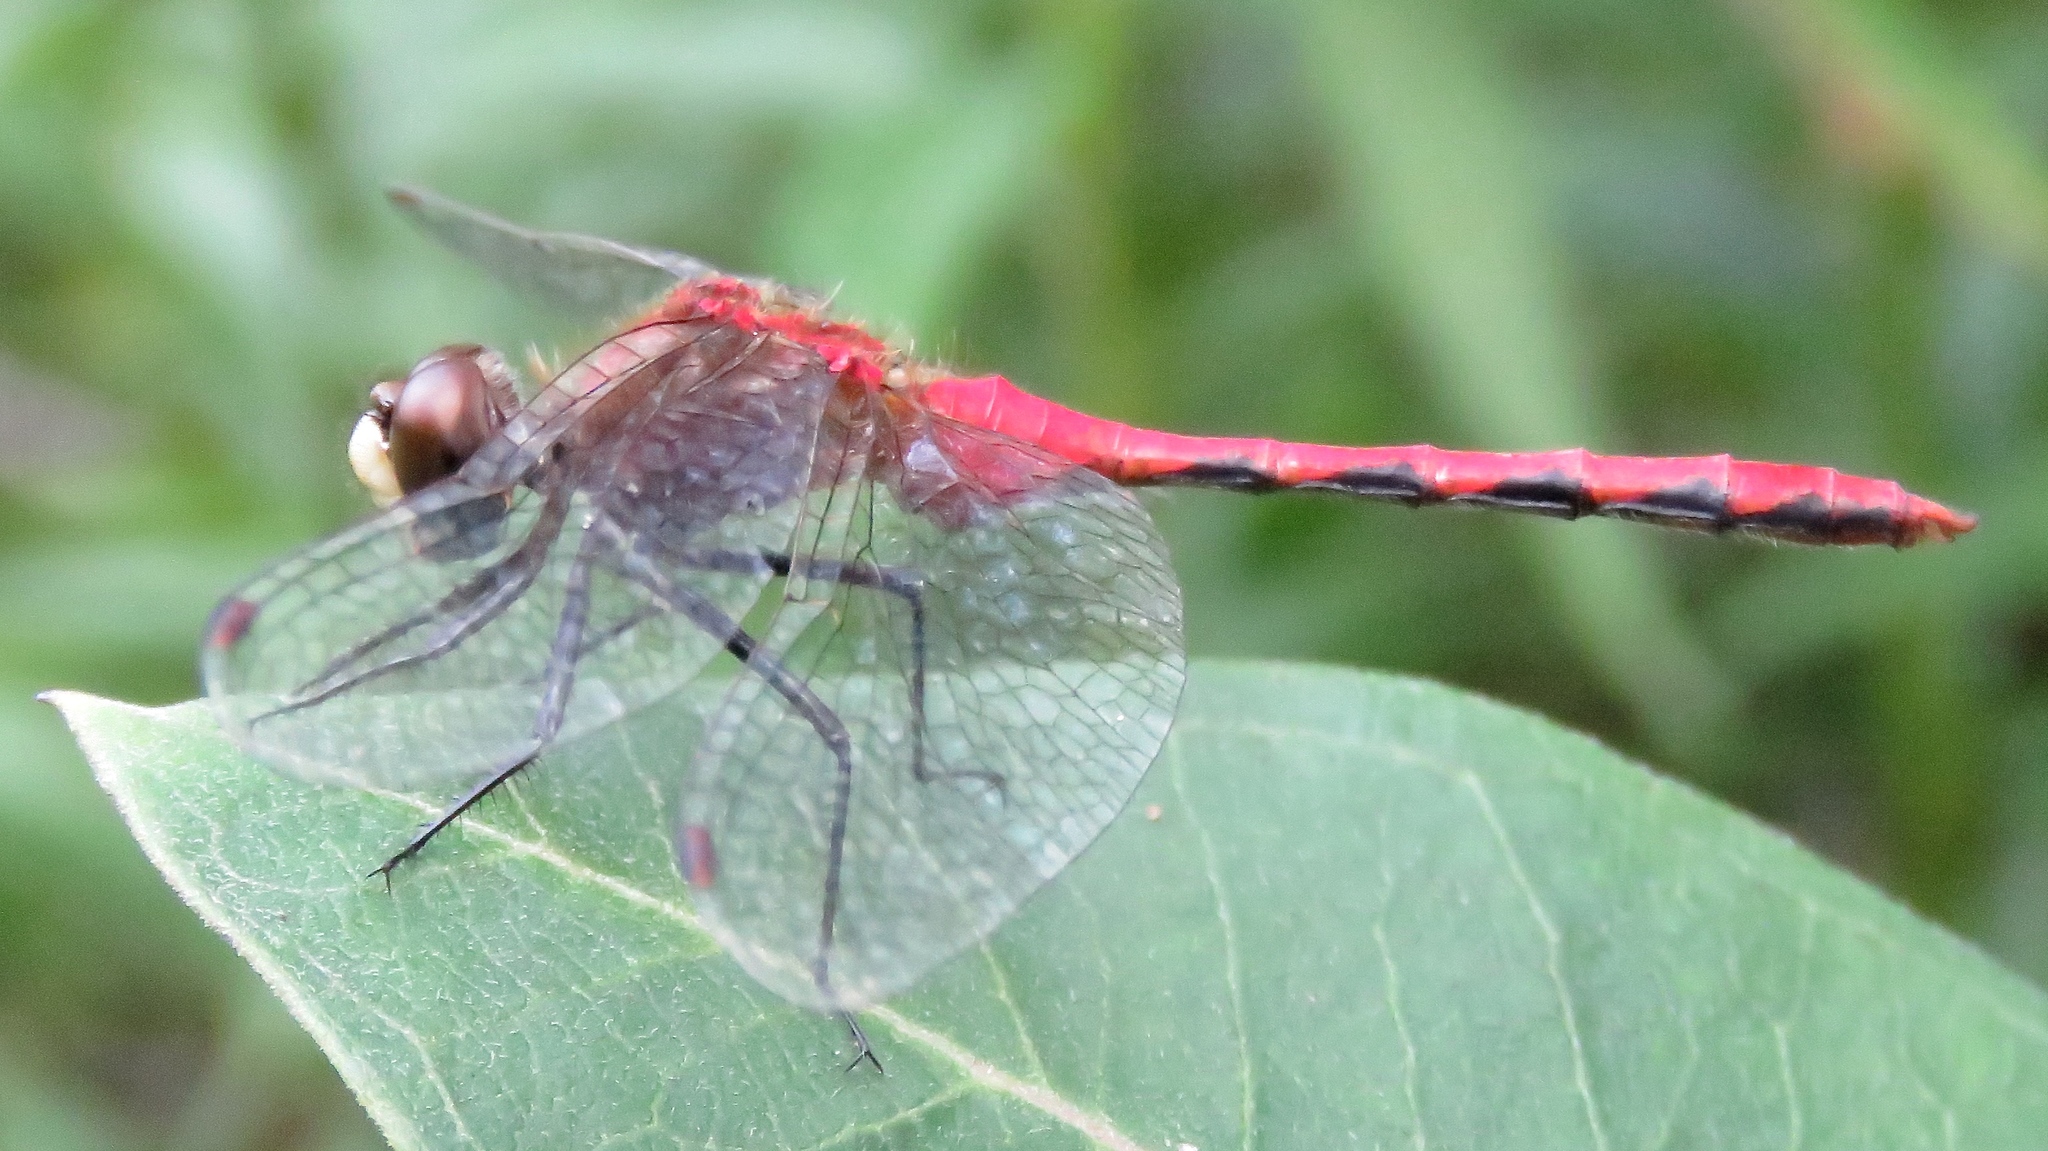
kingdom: Animalia
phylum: Arthropoda
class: Insecta
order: Odonata
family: Libellulidae
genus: Sympetrum
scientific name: Sympetrum obtrusum
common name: White-faced meadowhawk
